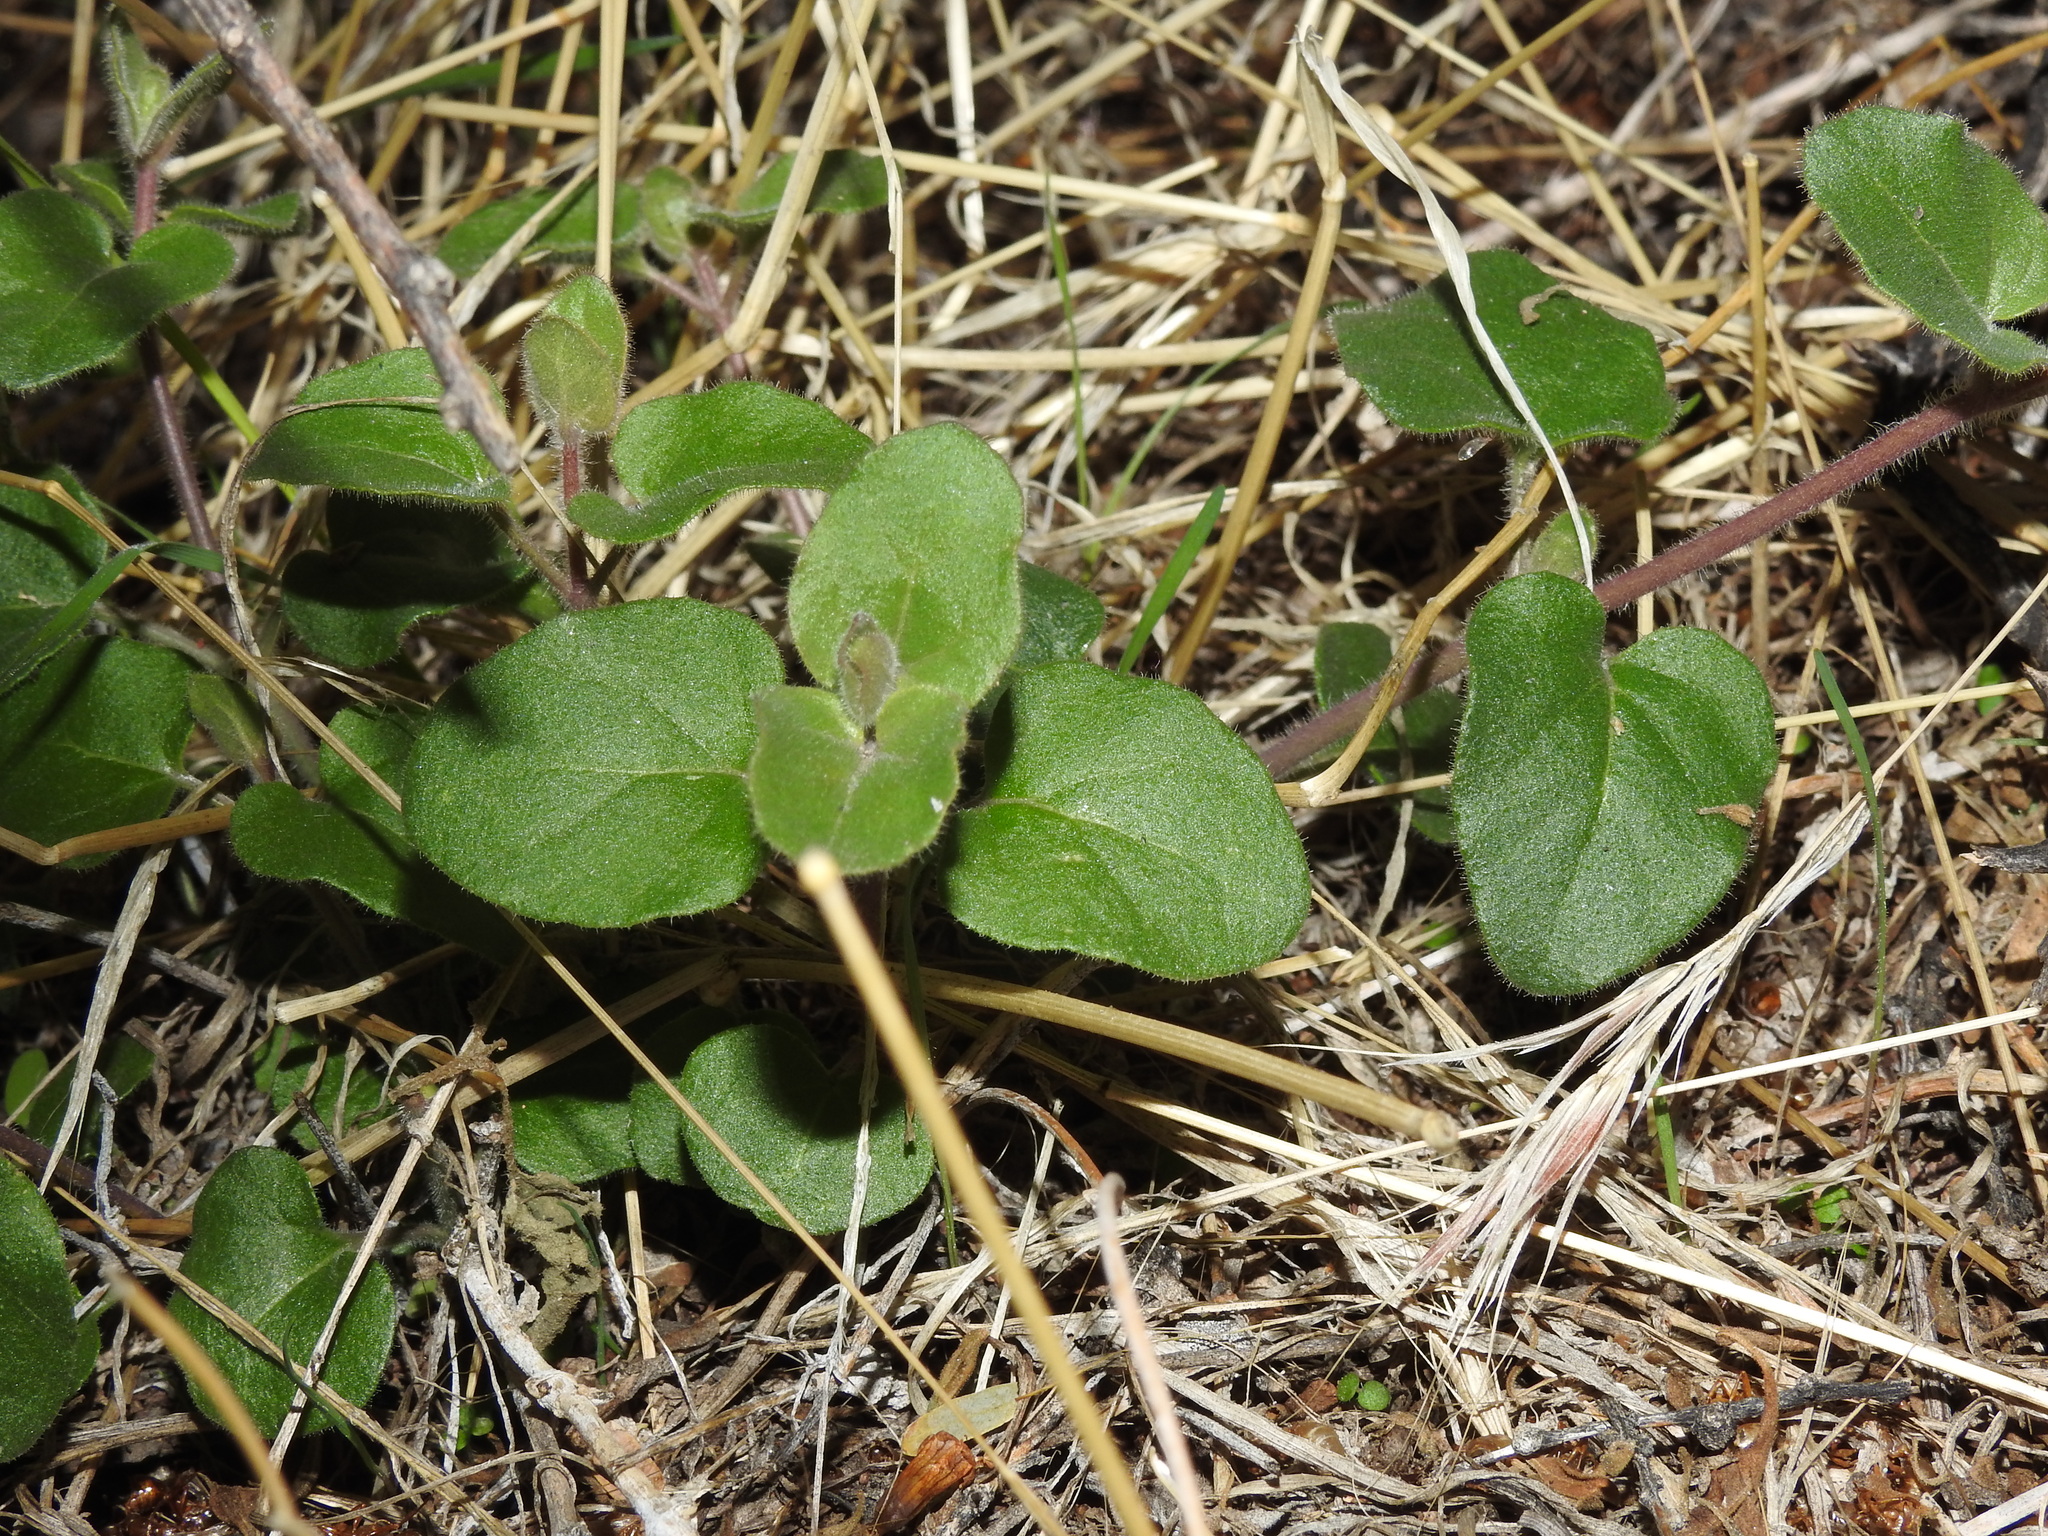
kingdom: Plantae
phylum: Tracheophyta
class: Magnoliopsida
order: Caryophyllales
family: Nyctaginaceae
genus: Mirabilis
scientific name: Mirabilis laevis
